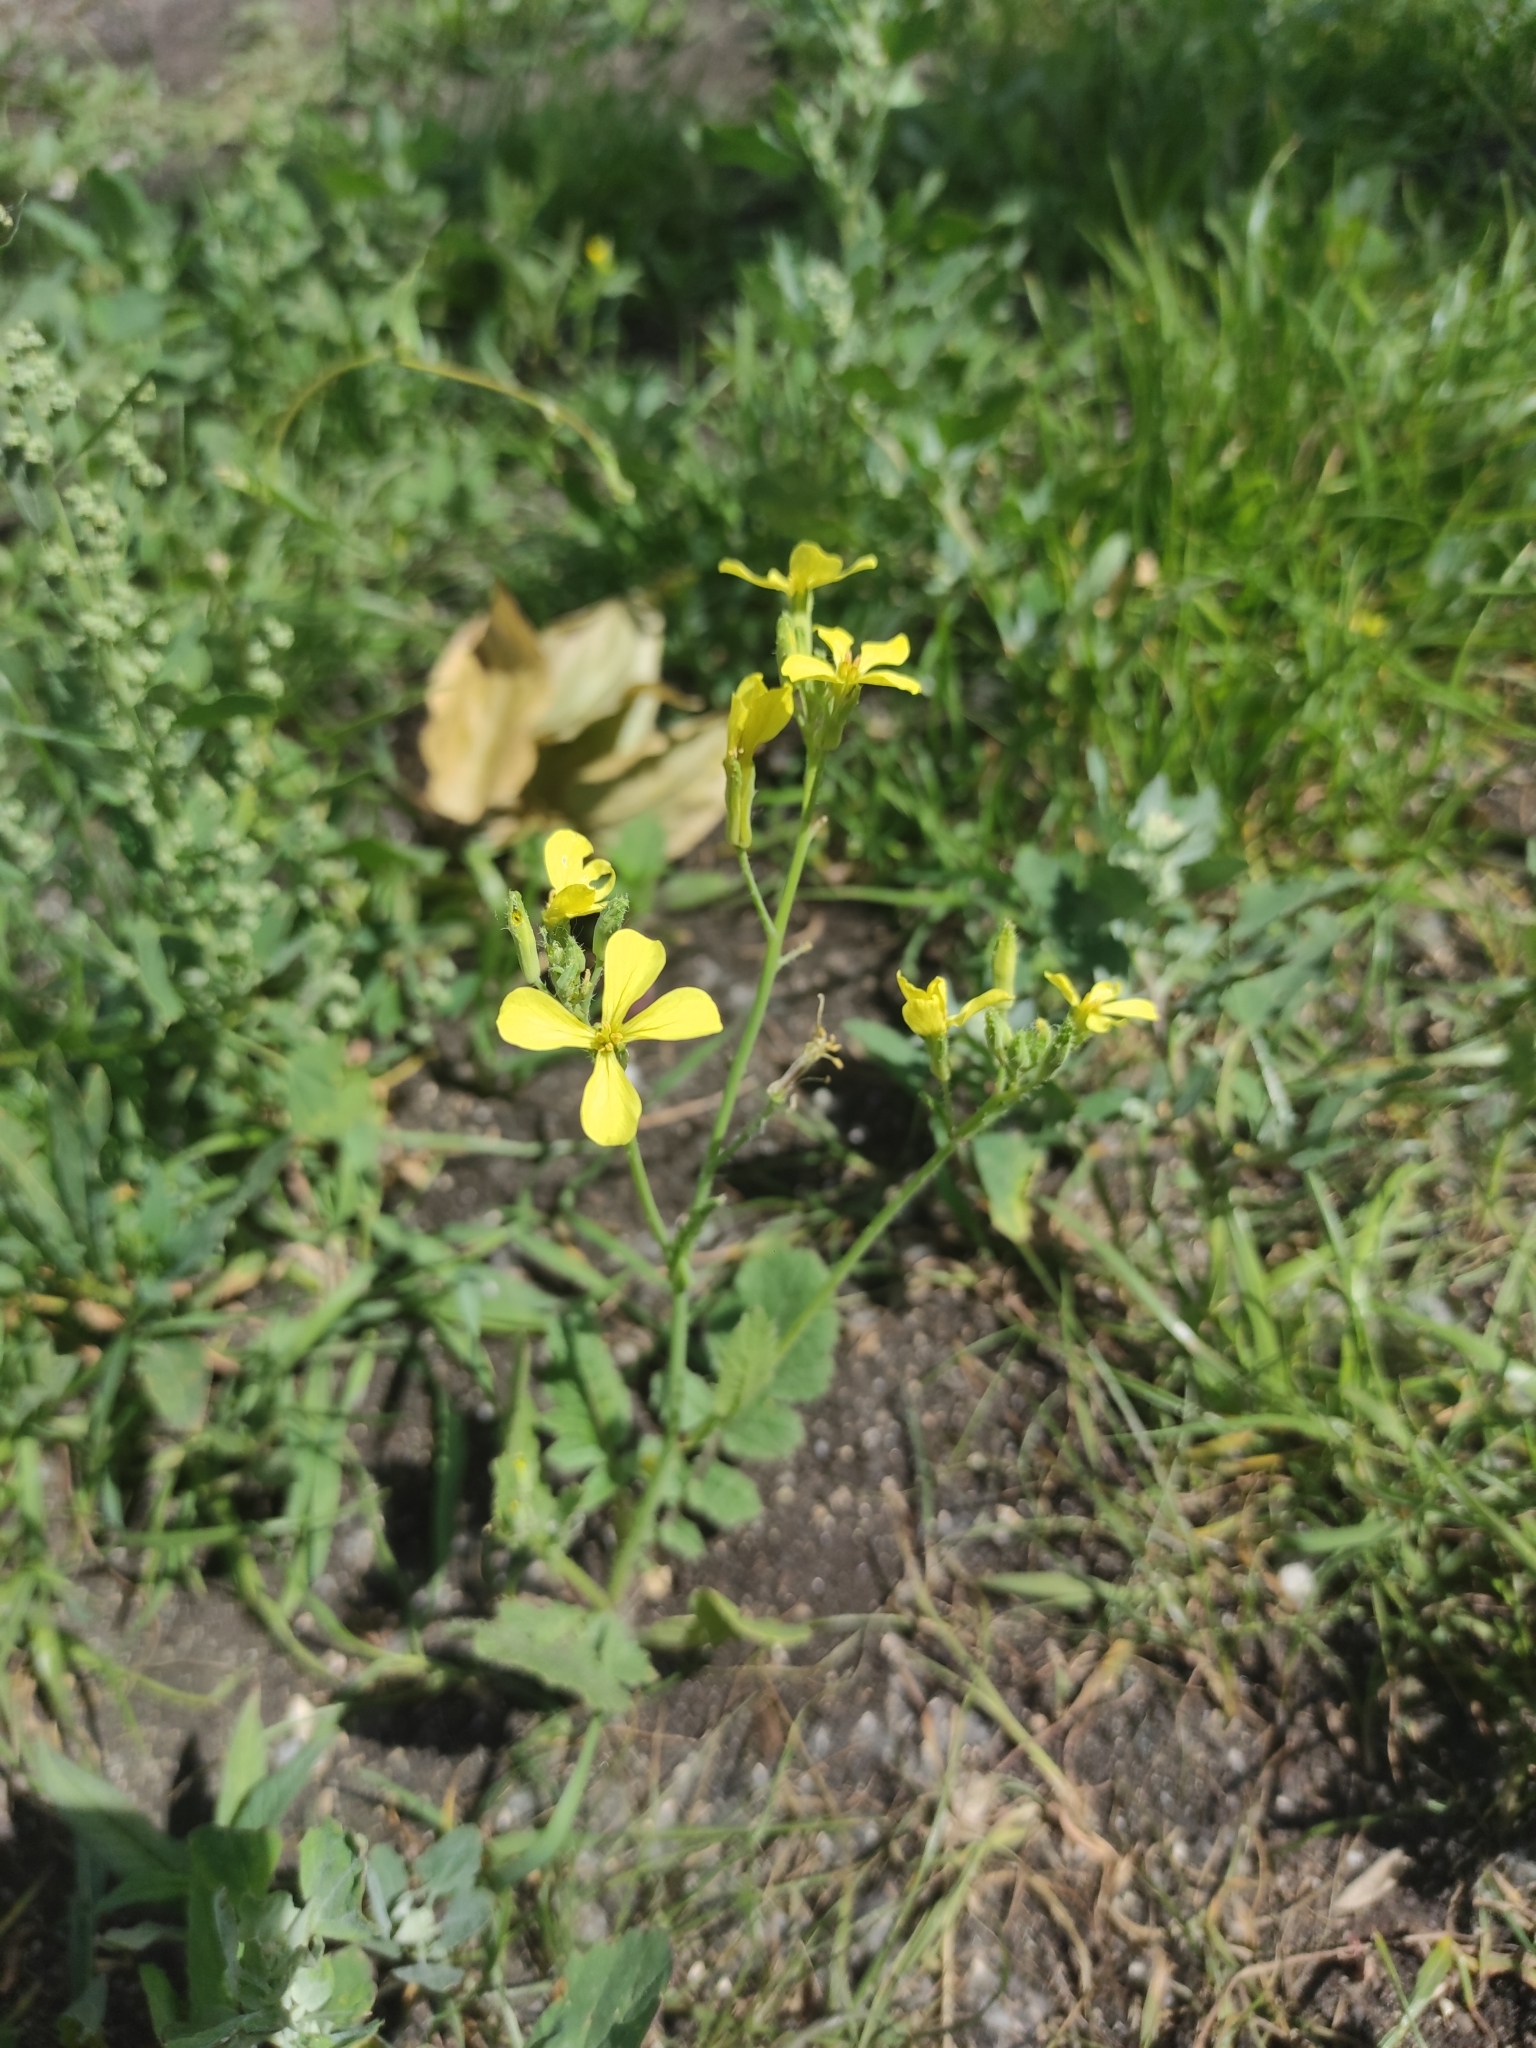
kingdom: Plantae
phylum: Tracheophyta
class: Magnoliopsida
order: Brassicales
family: Brassicaceae
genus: Raphanus
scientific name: Raphanus raphanistrum
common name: Wild radish
